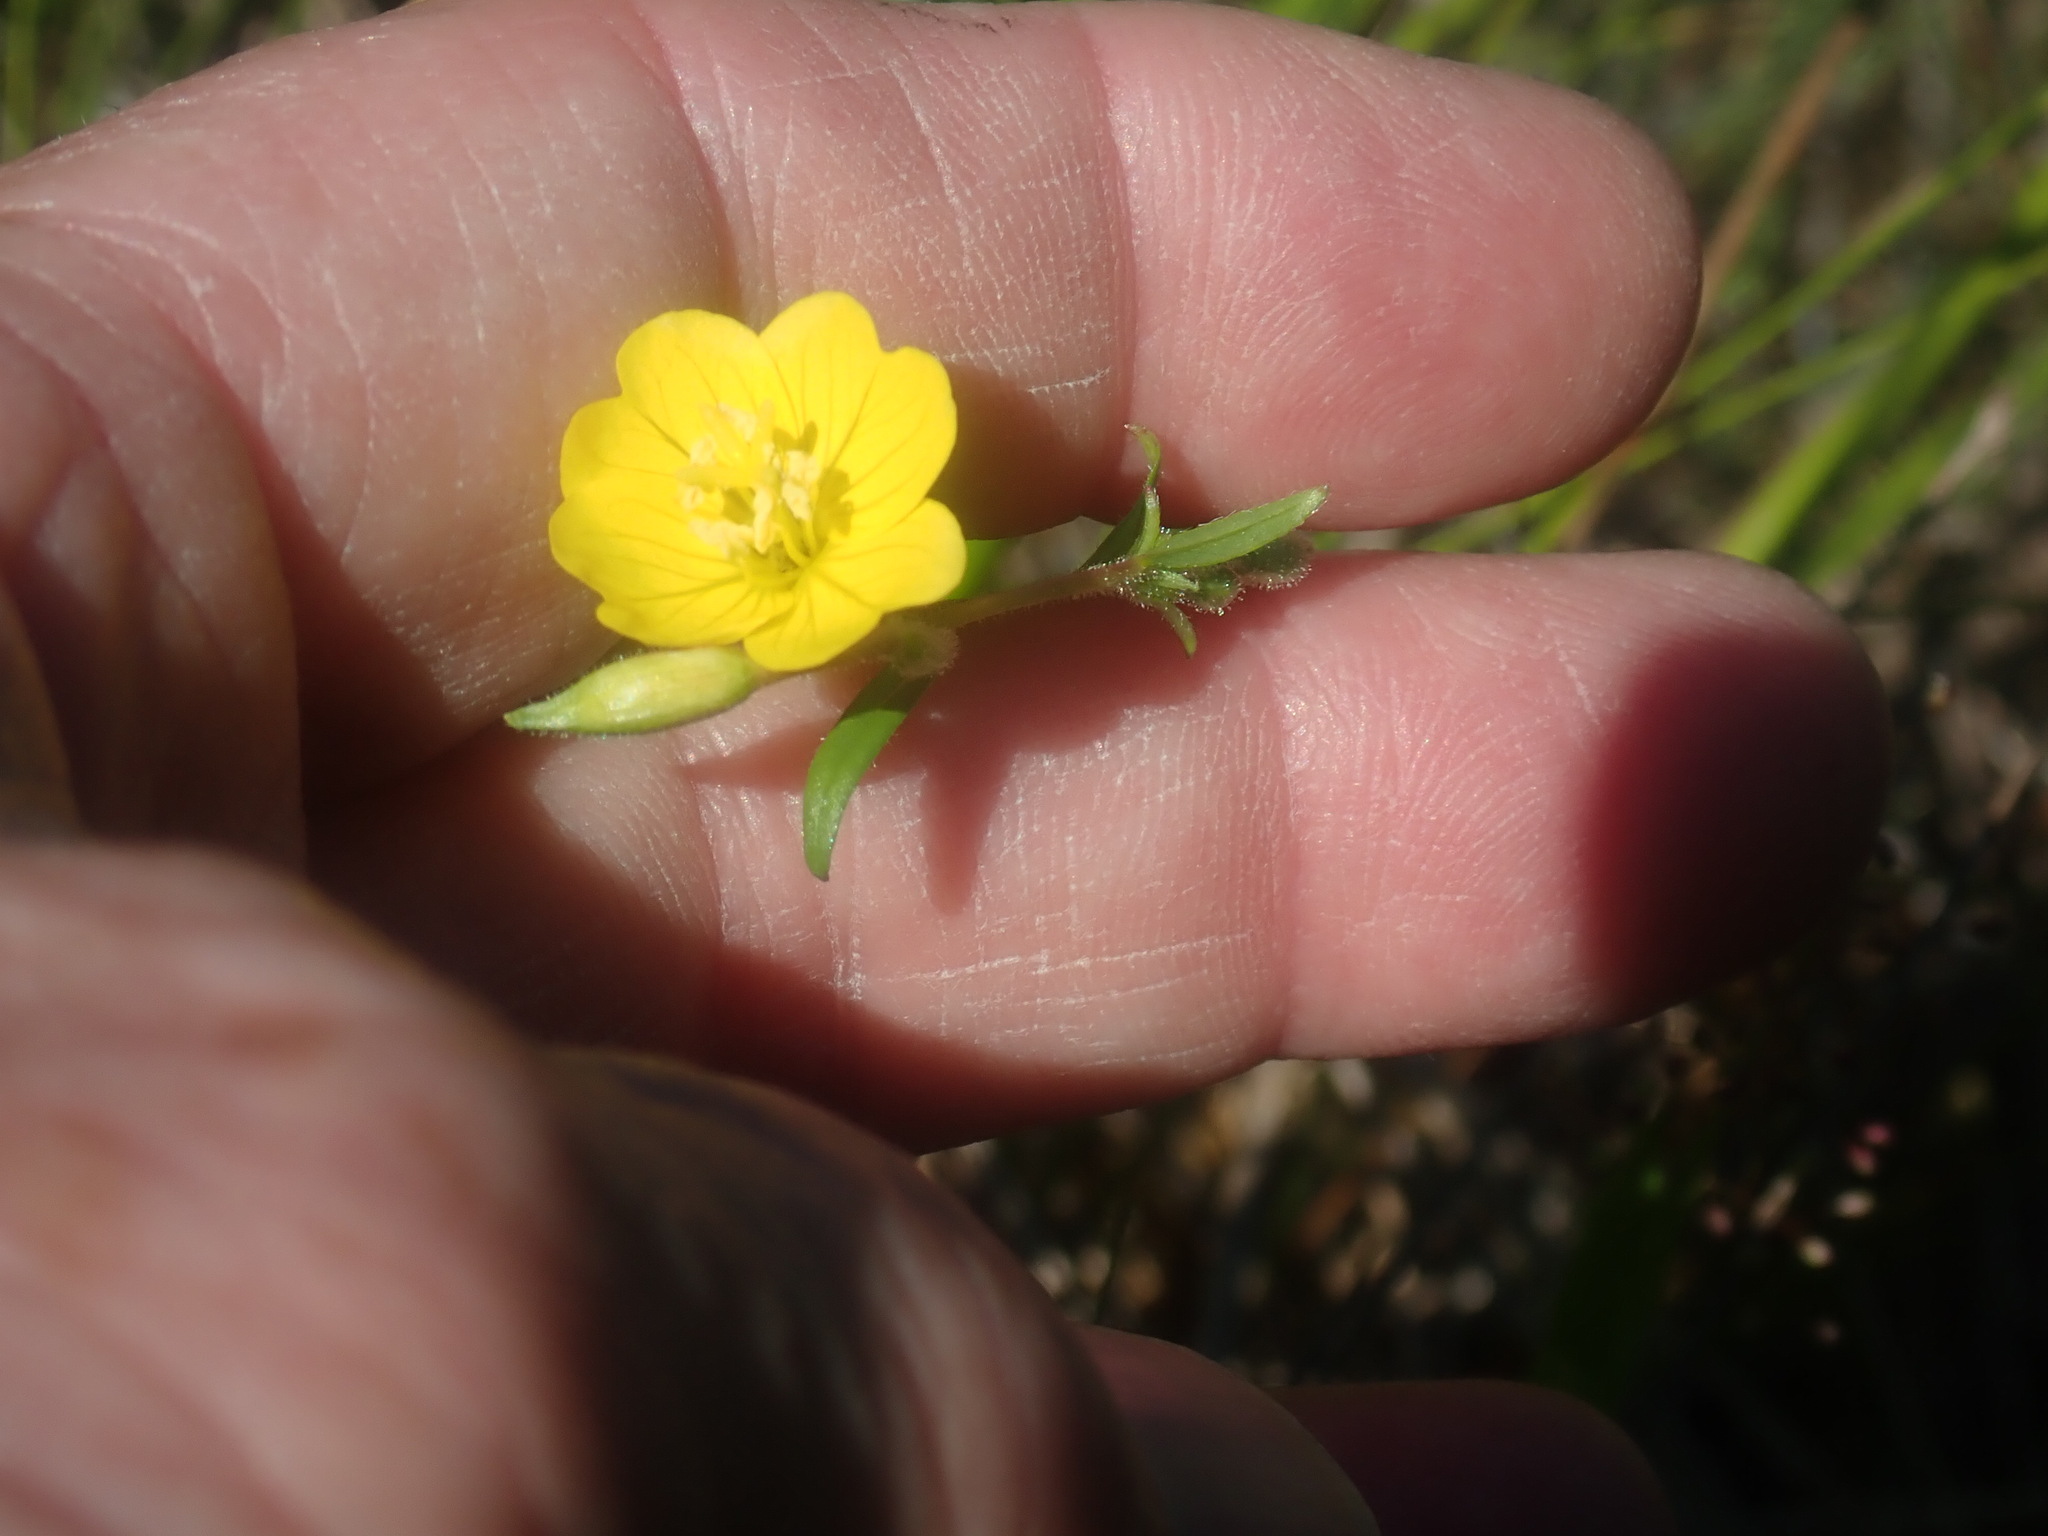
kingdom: Plantae
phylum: Tracheophyta
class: Magnoliopsida
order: Myrtales
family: Onagraceae
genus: Oenothera
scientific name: Oenothera perennis
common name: Small sundrops
